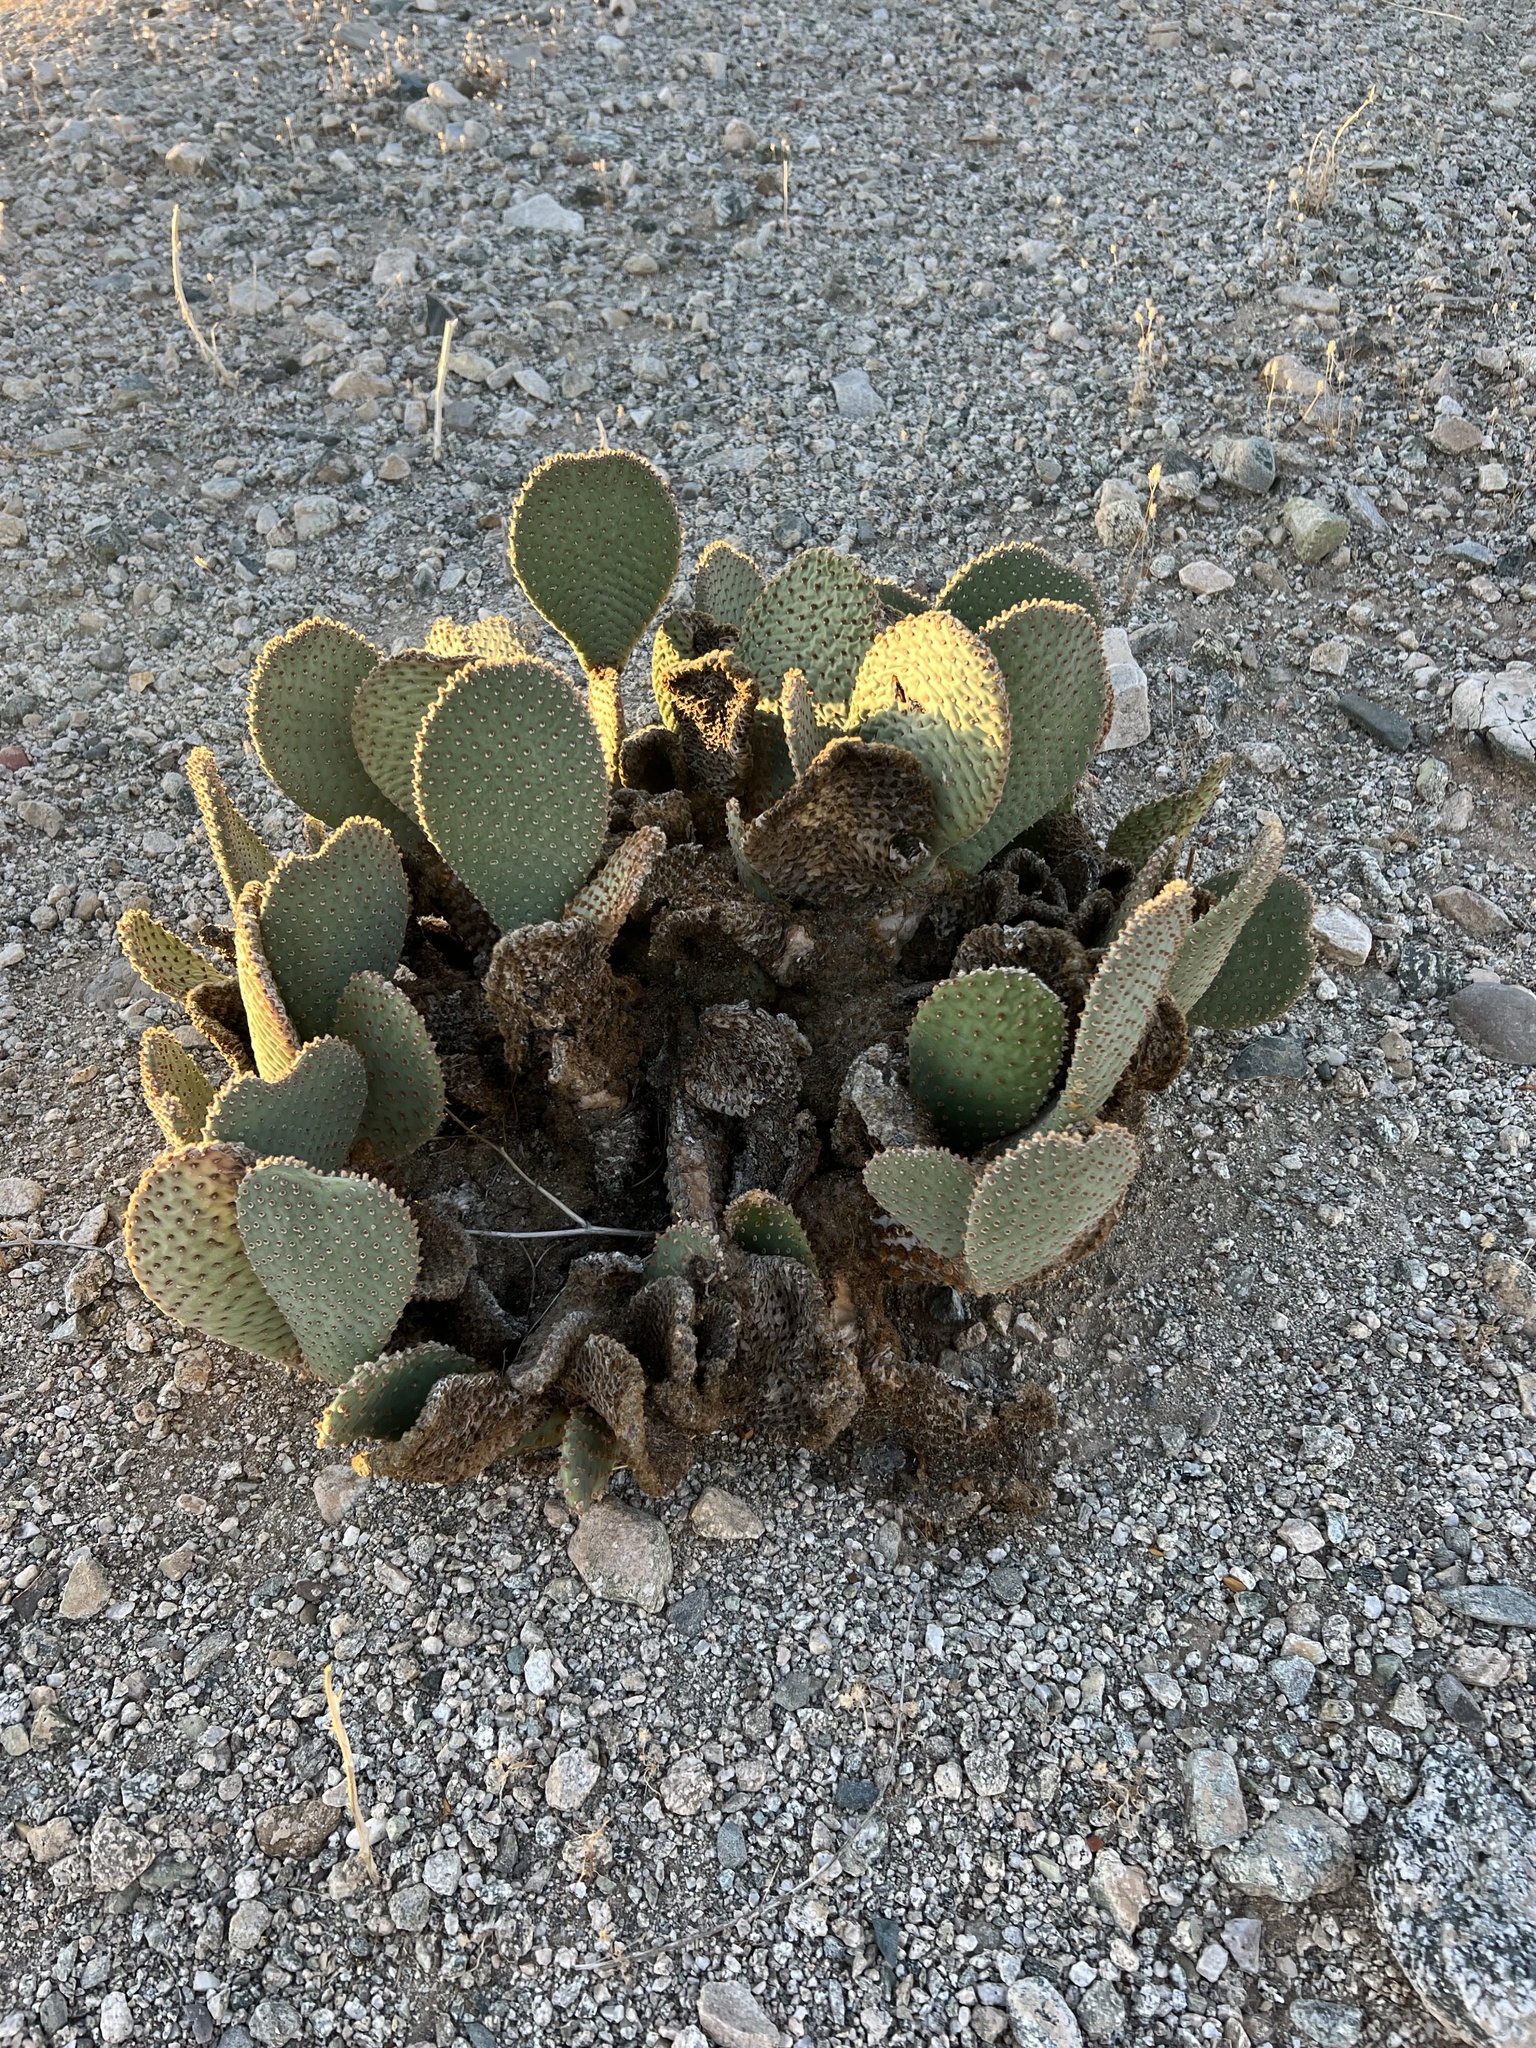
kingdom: Plantae
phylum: Tracheophyta
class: Magnoliopsida
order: Caryophyllales
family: Cactaceae
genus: Opuntia
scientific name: Opuntia basilaris
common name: Beavertail prickly-pear
